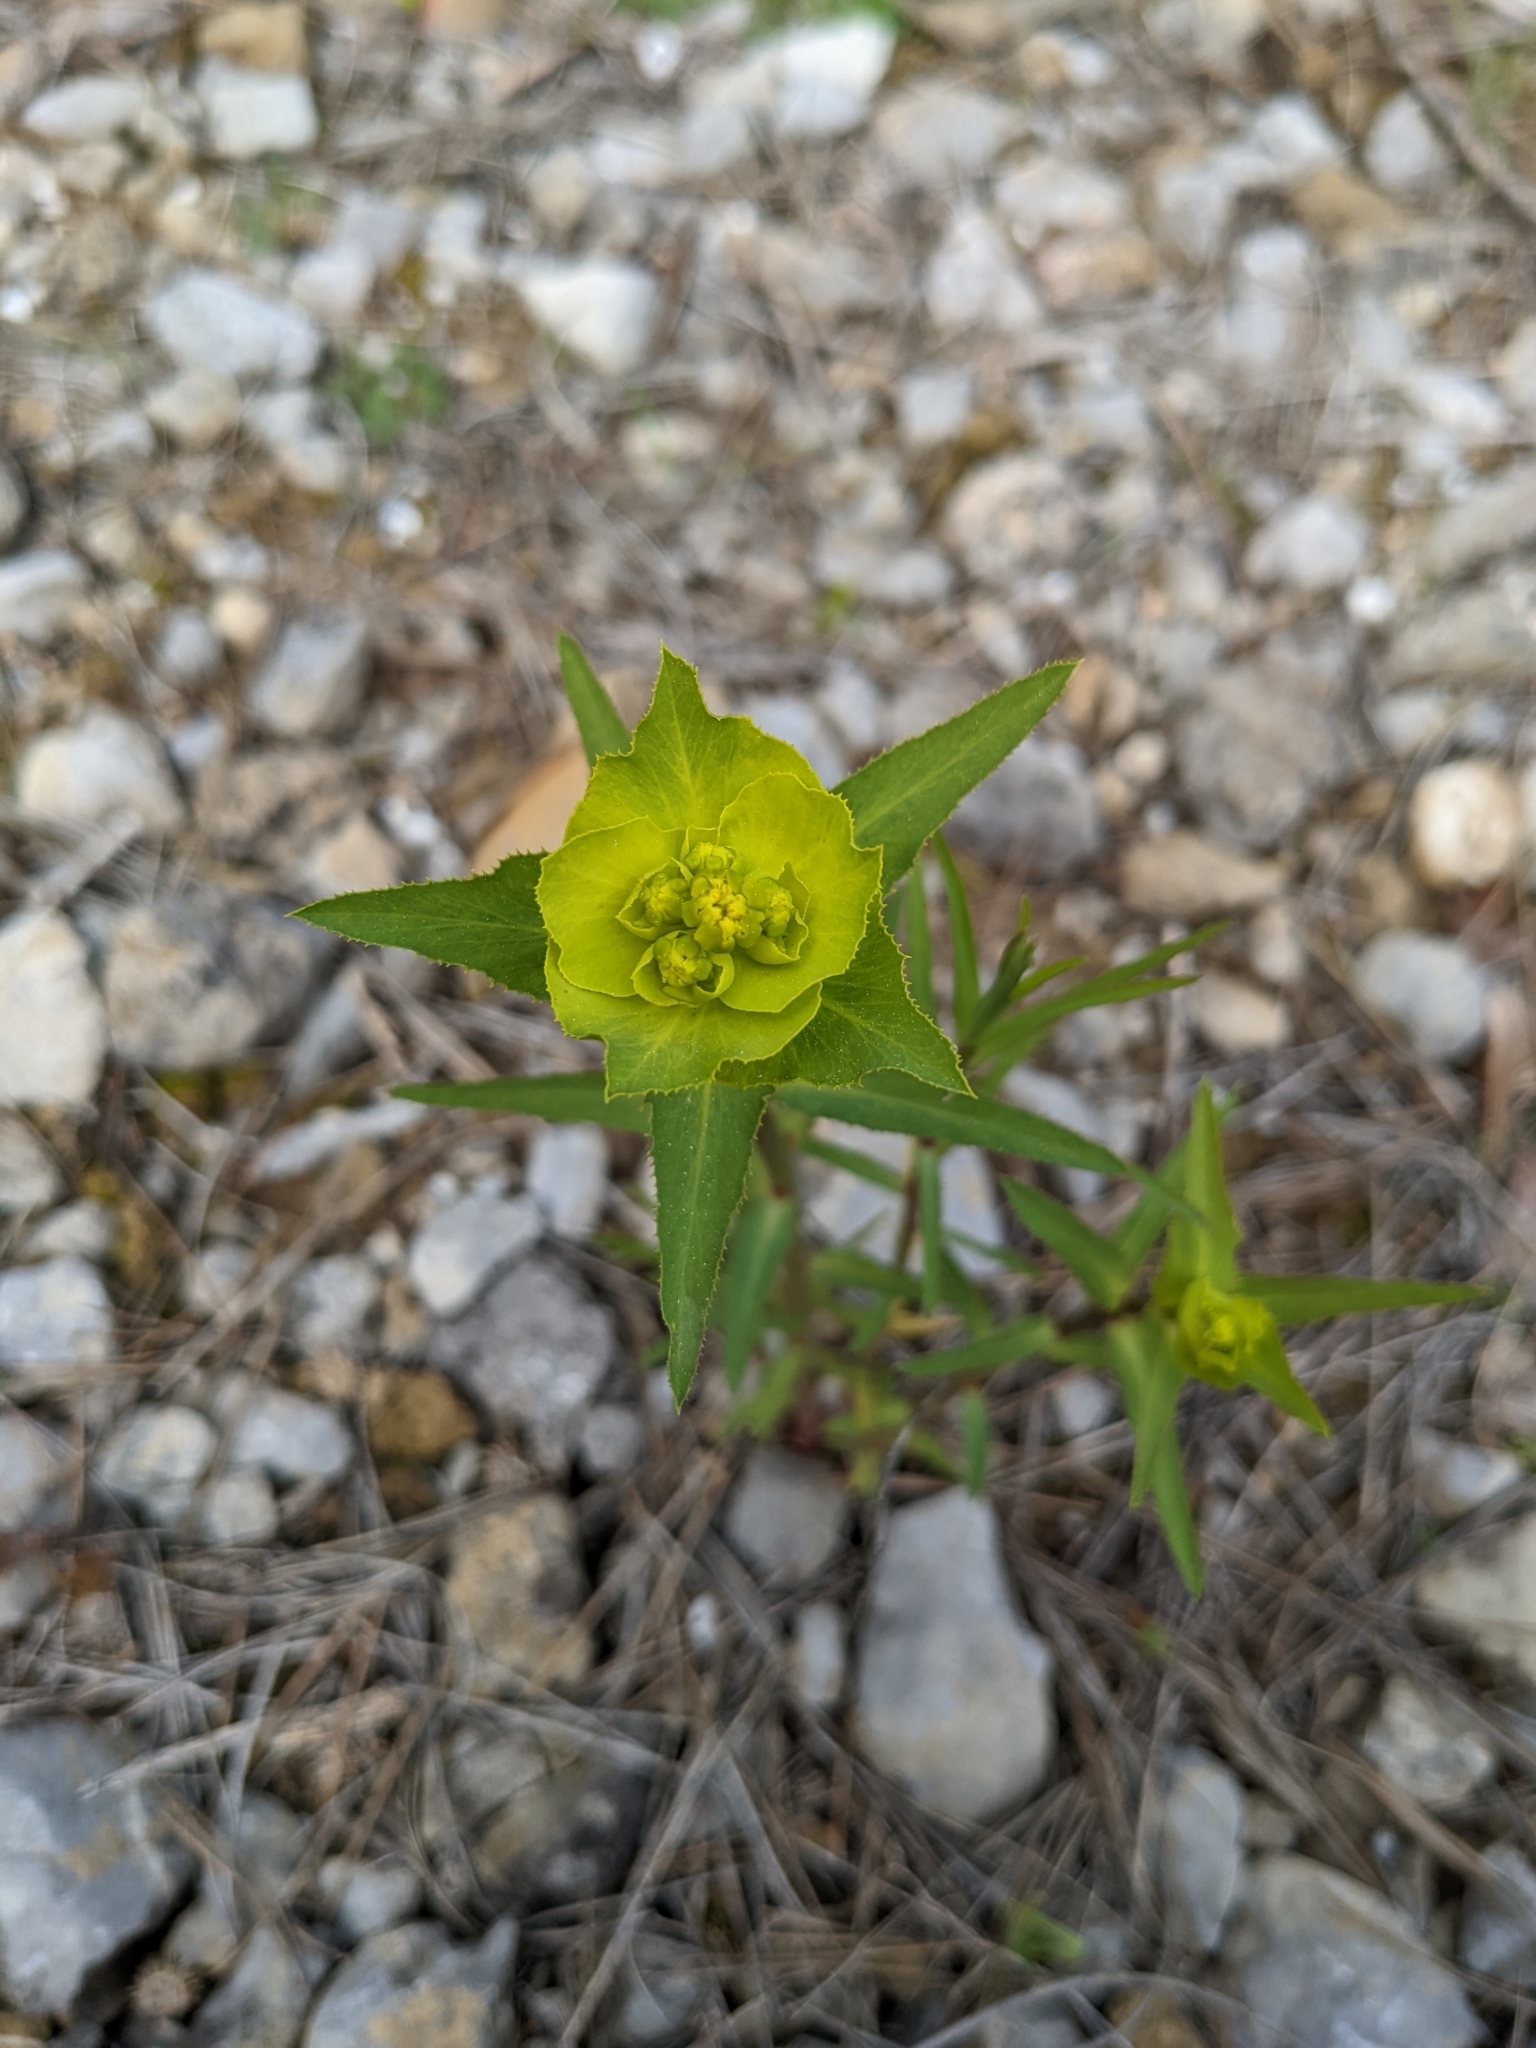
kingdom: Plantae
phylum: Tracheophyta
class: Magnoliopsida
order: Malpighiales
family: Euphorbiaceae
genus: Euphorbia
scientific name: Euphorbia serrata
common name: Serrate spurge
